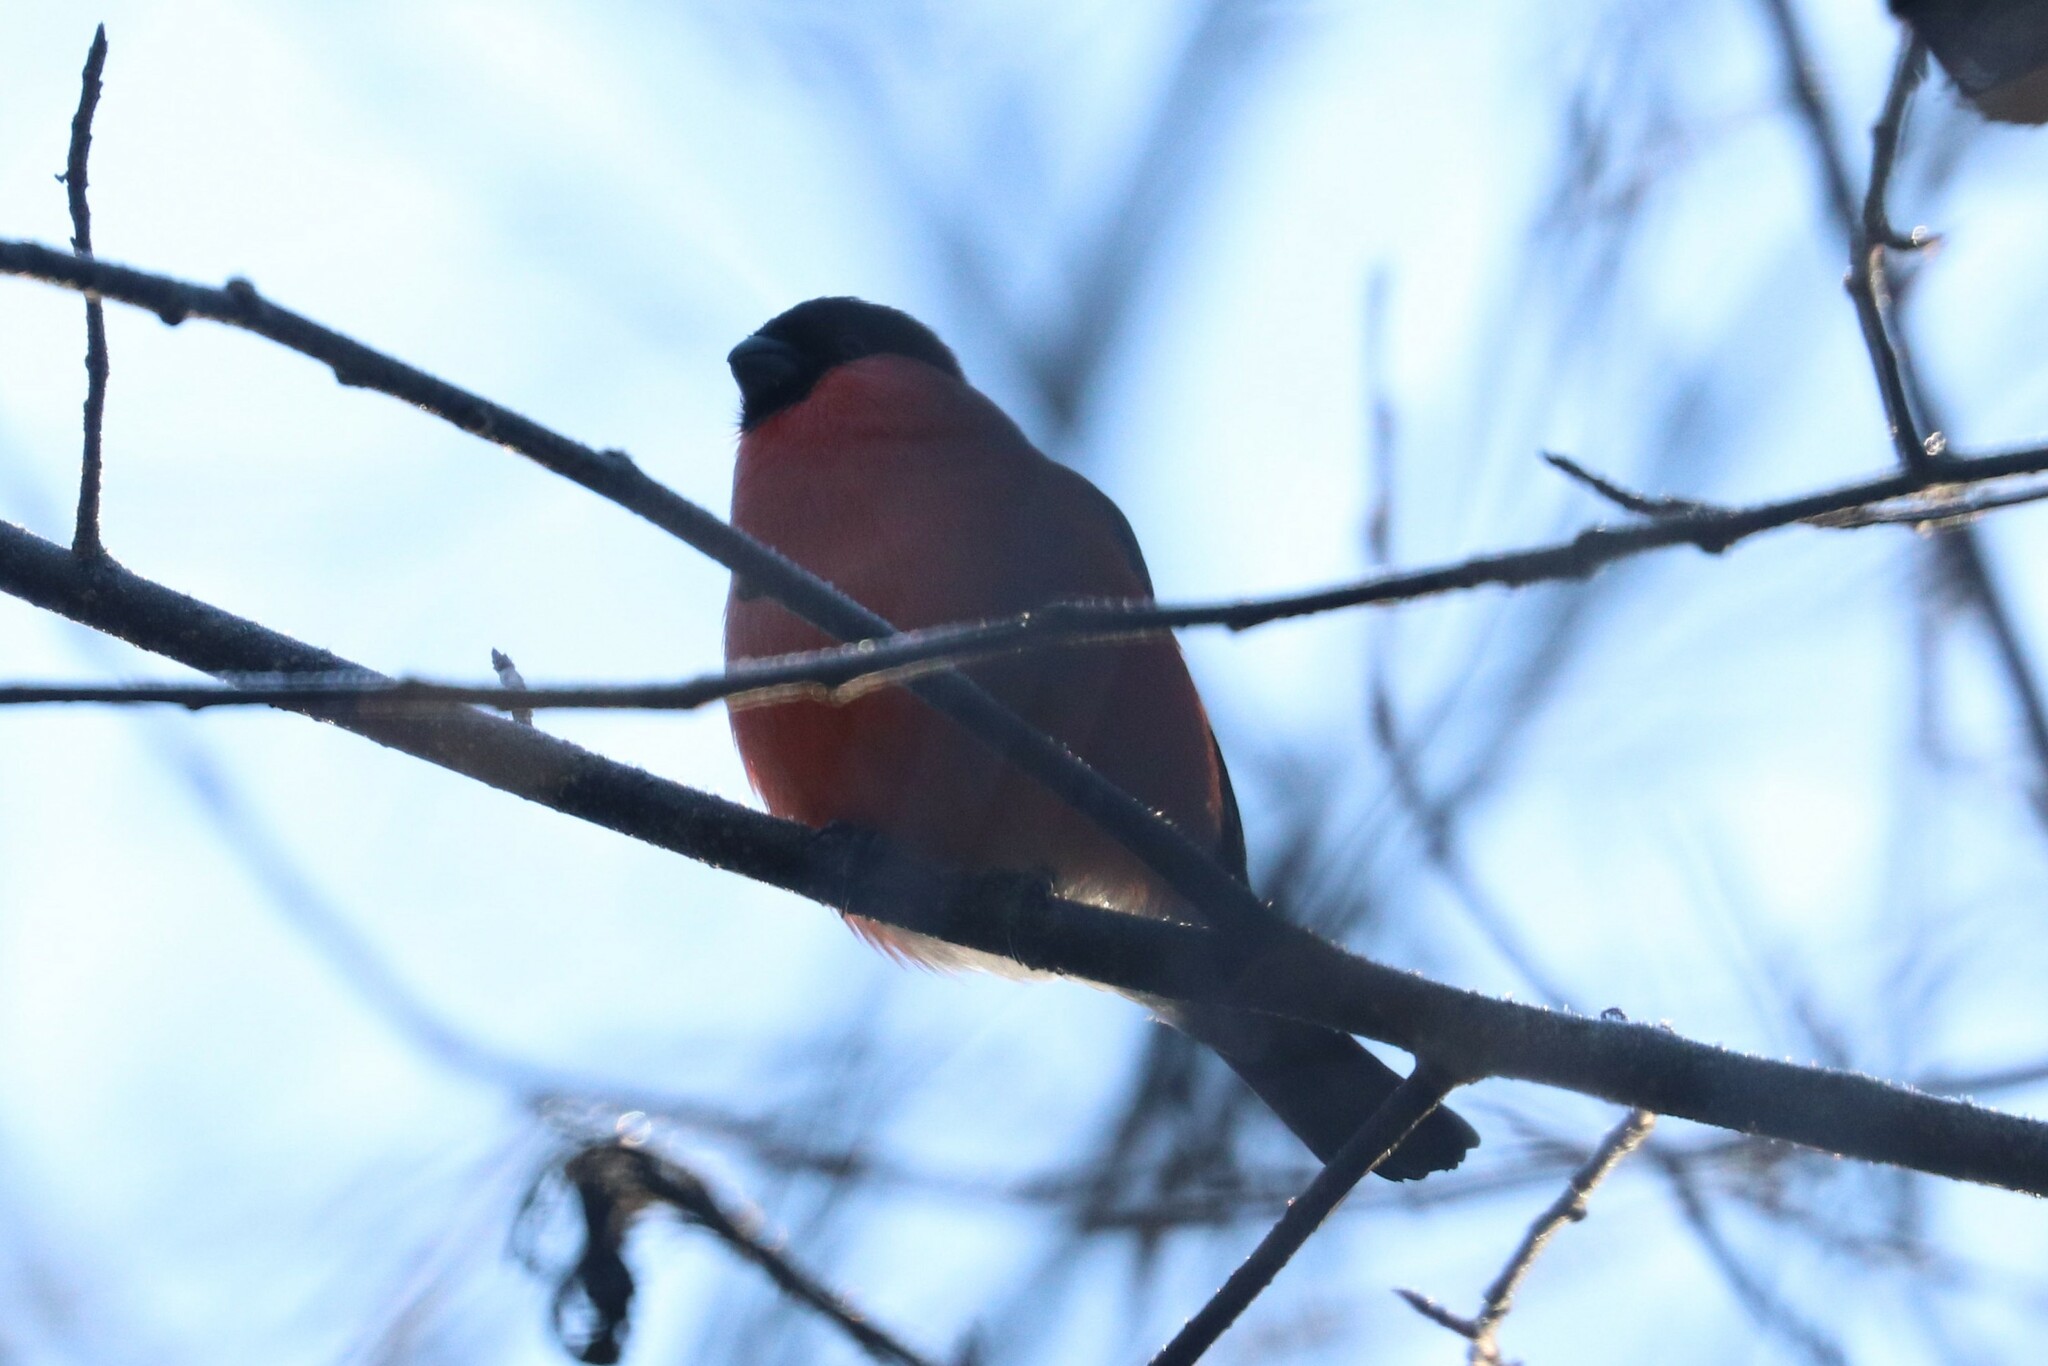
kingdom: Animalia
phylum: Chordata
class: Aves
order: Passeriformes
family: Fringillidae
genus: Pyrrhula
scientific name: Pyrrhula pyrrhula
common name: Eurasian bullfinch
